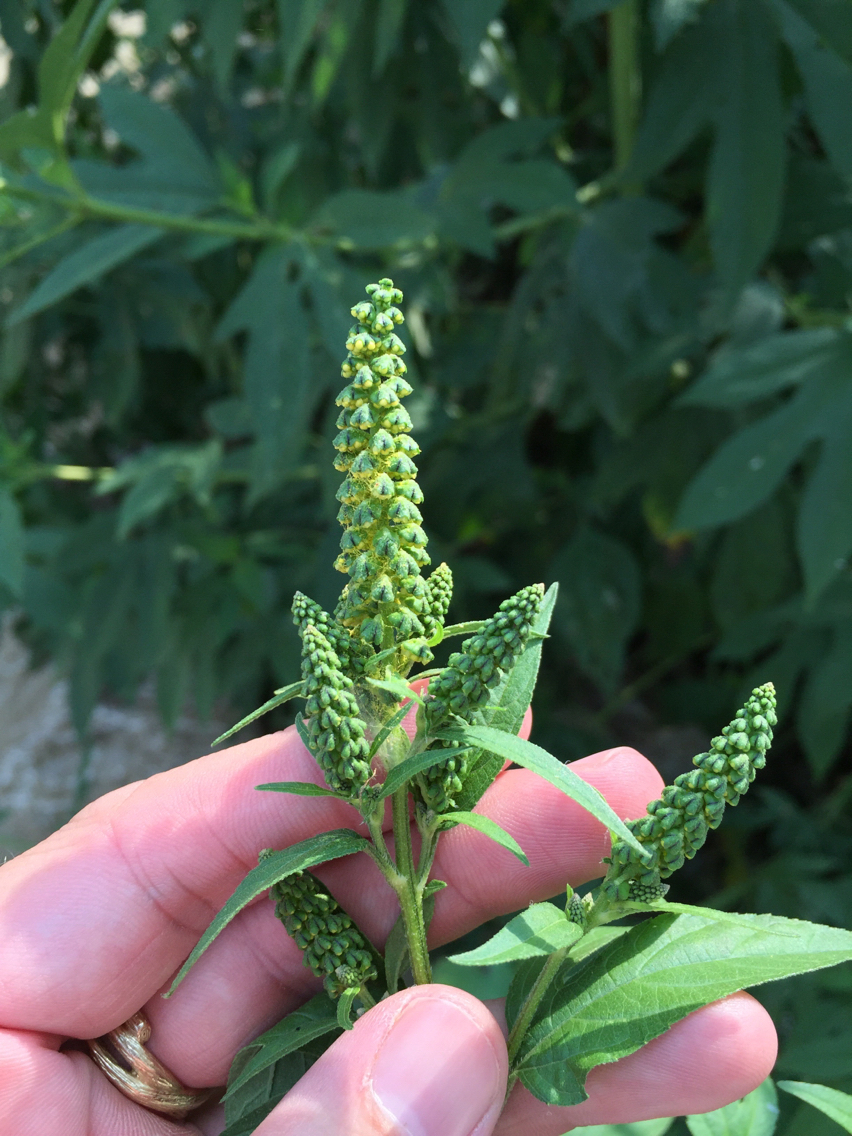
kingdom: Plantae
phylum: Tracheophyta
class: Magnoliopsida
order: Asterales
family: Asteraceae
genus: Ambrosia
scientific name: Ambrosia trifida
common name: Giant ragweed
